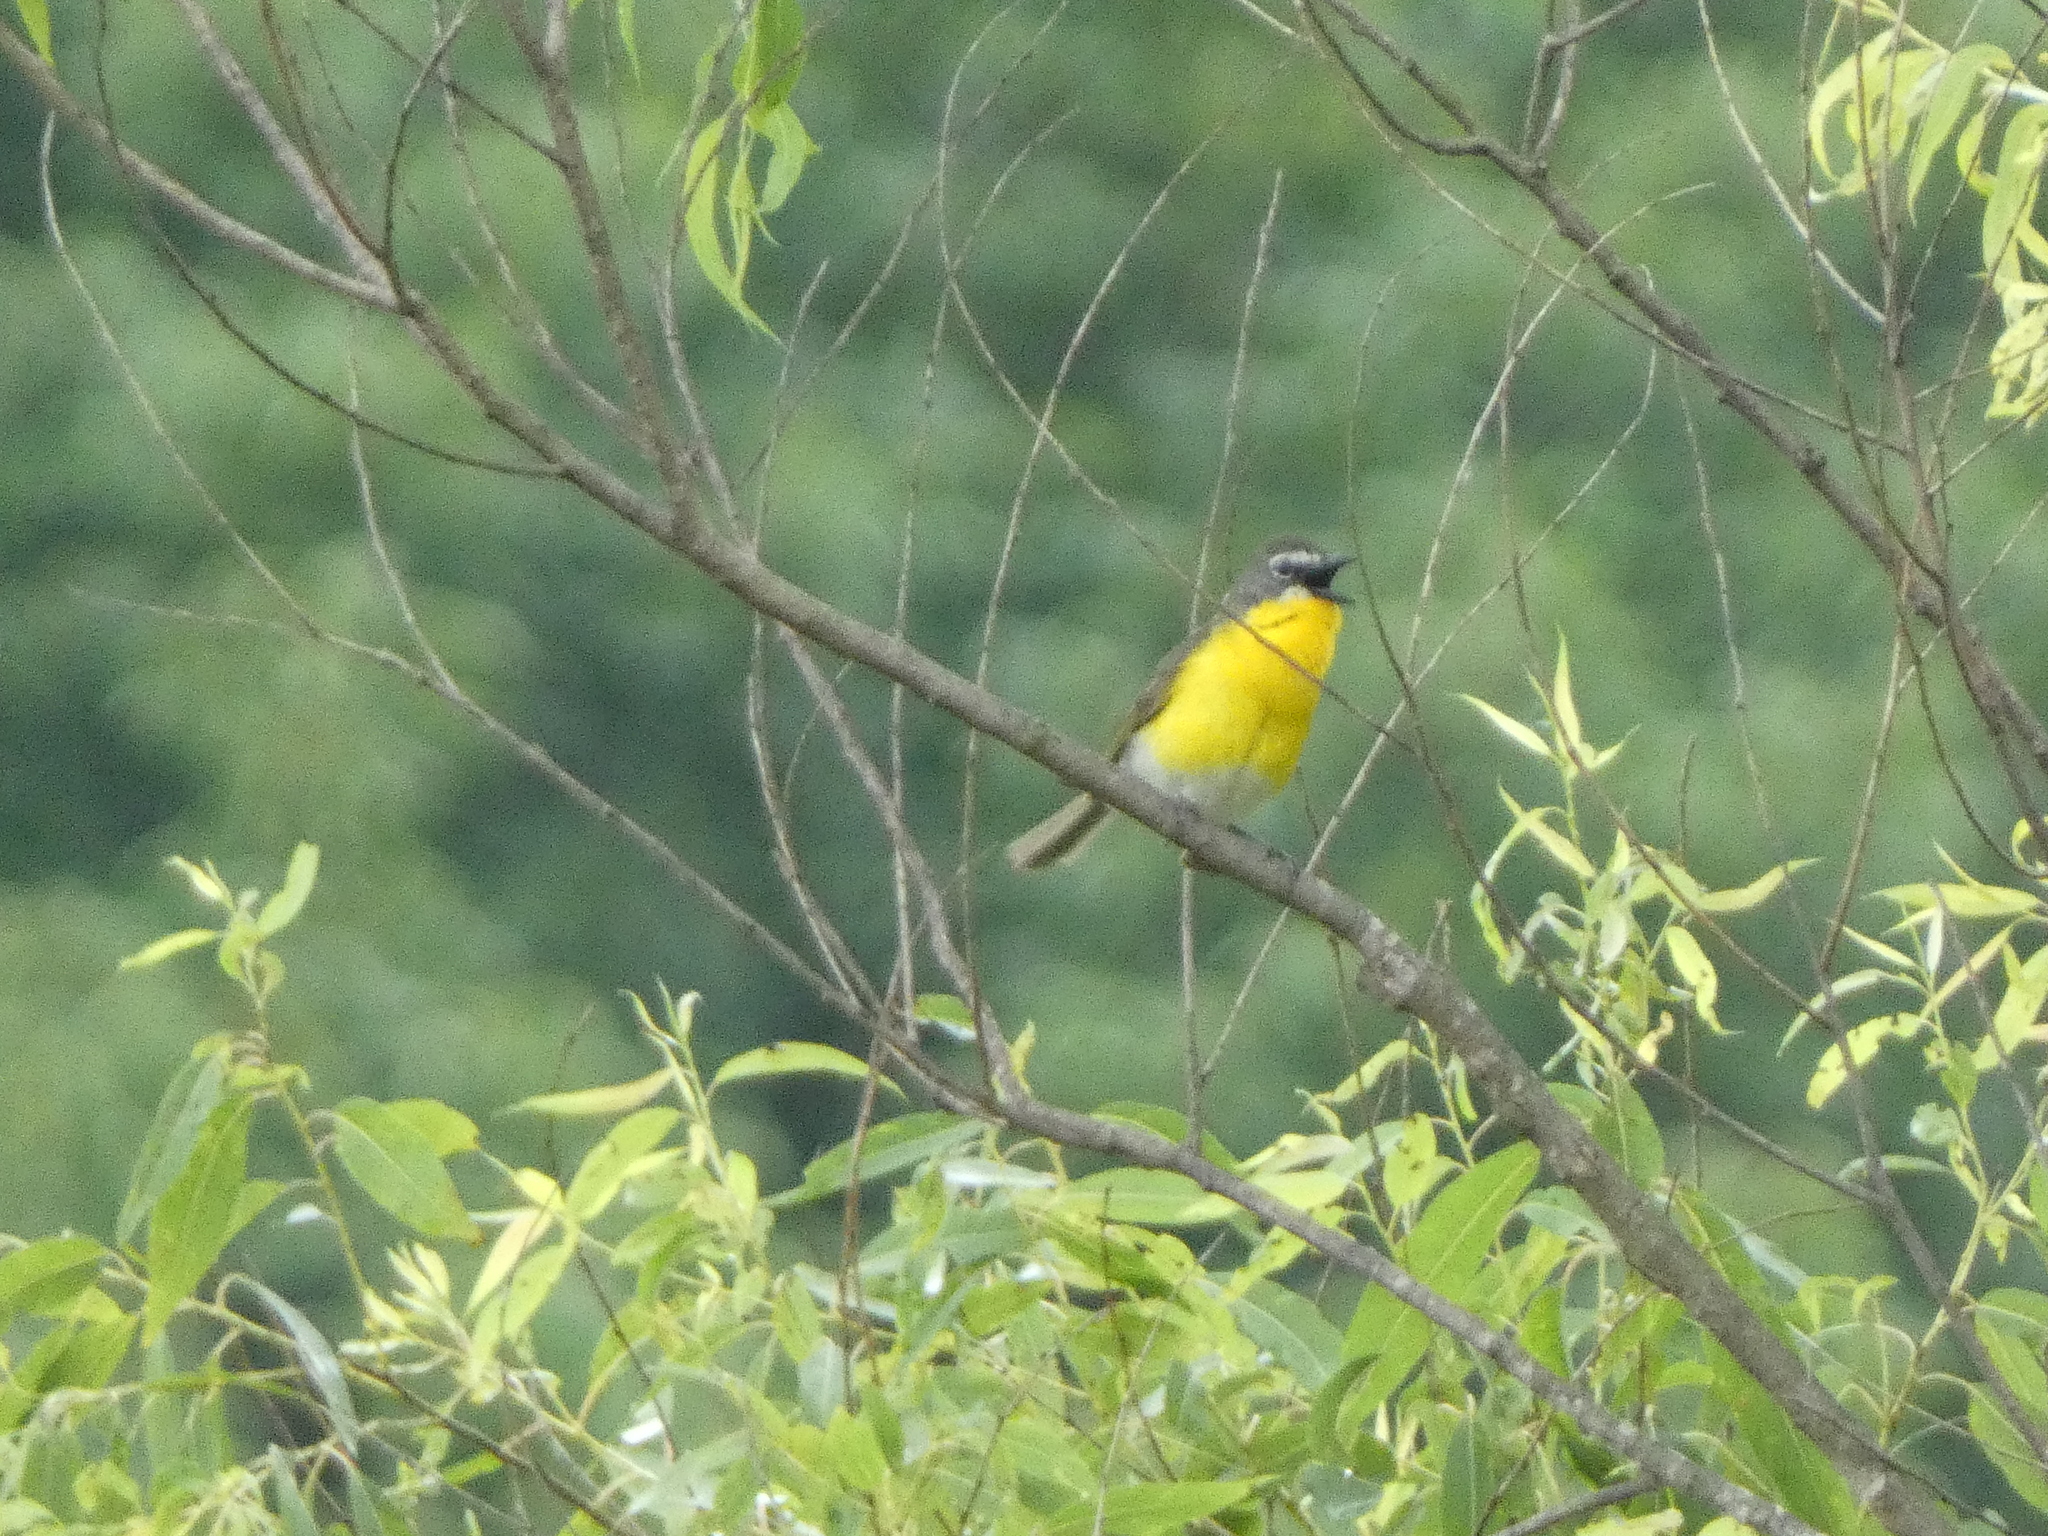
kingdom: Animalia
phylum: Chordata
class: Aves
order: Passeriformes
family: Parulidae
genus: Icteria
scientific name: Icteria virens
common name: Yellow-breasted chat
